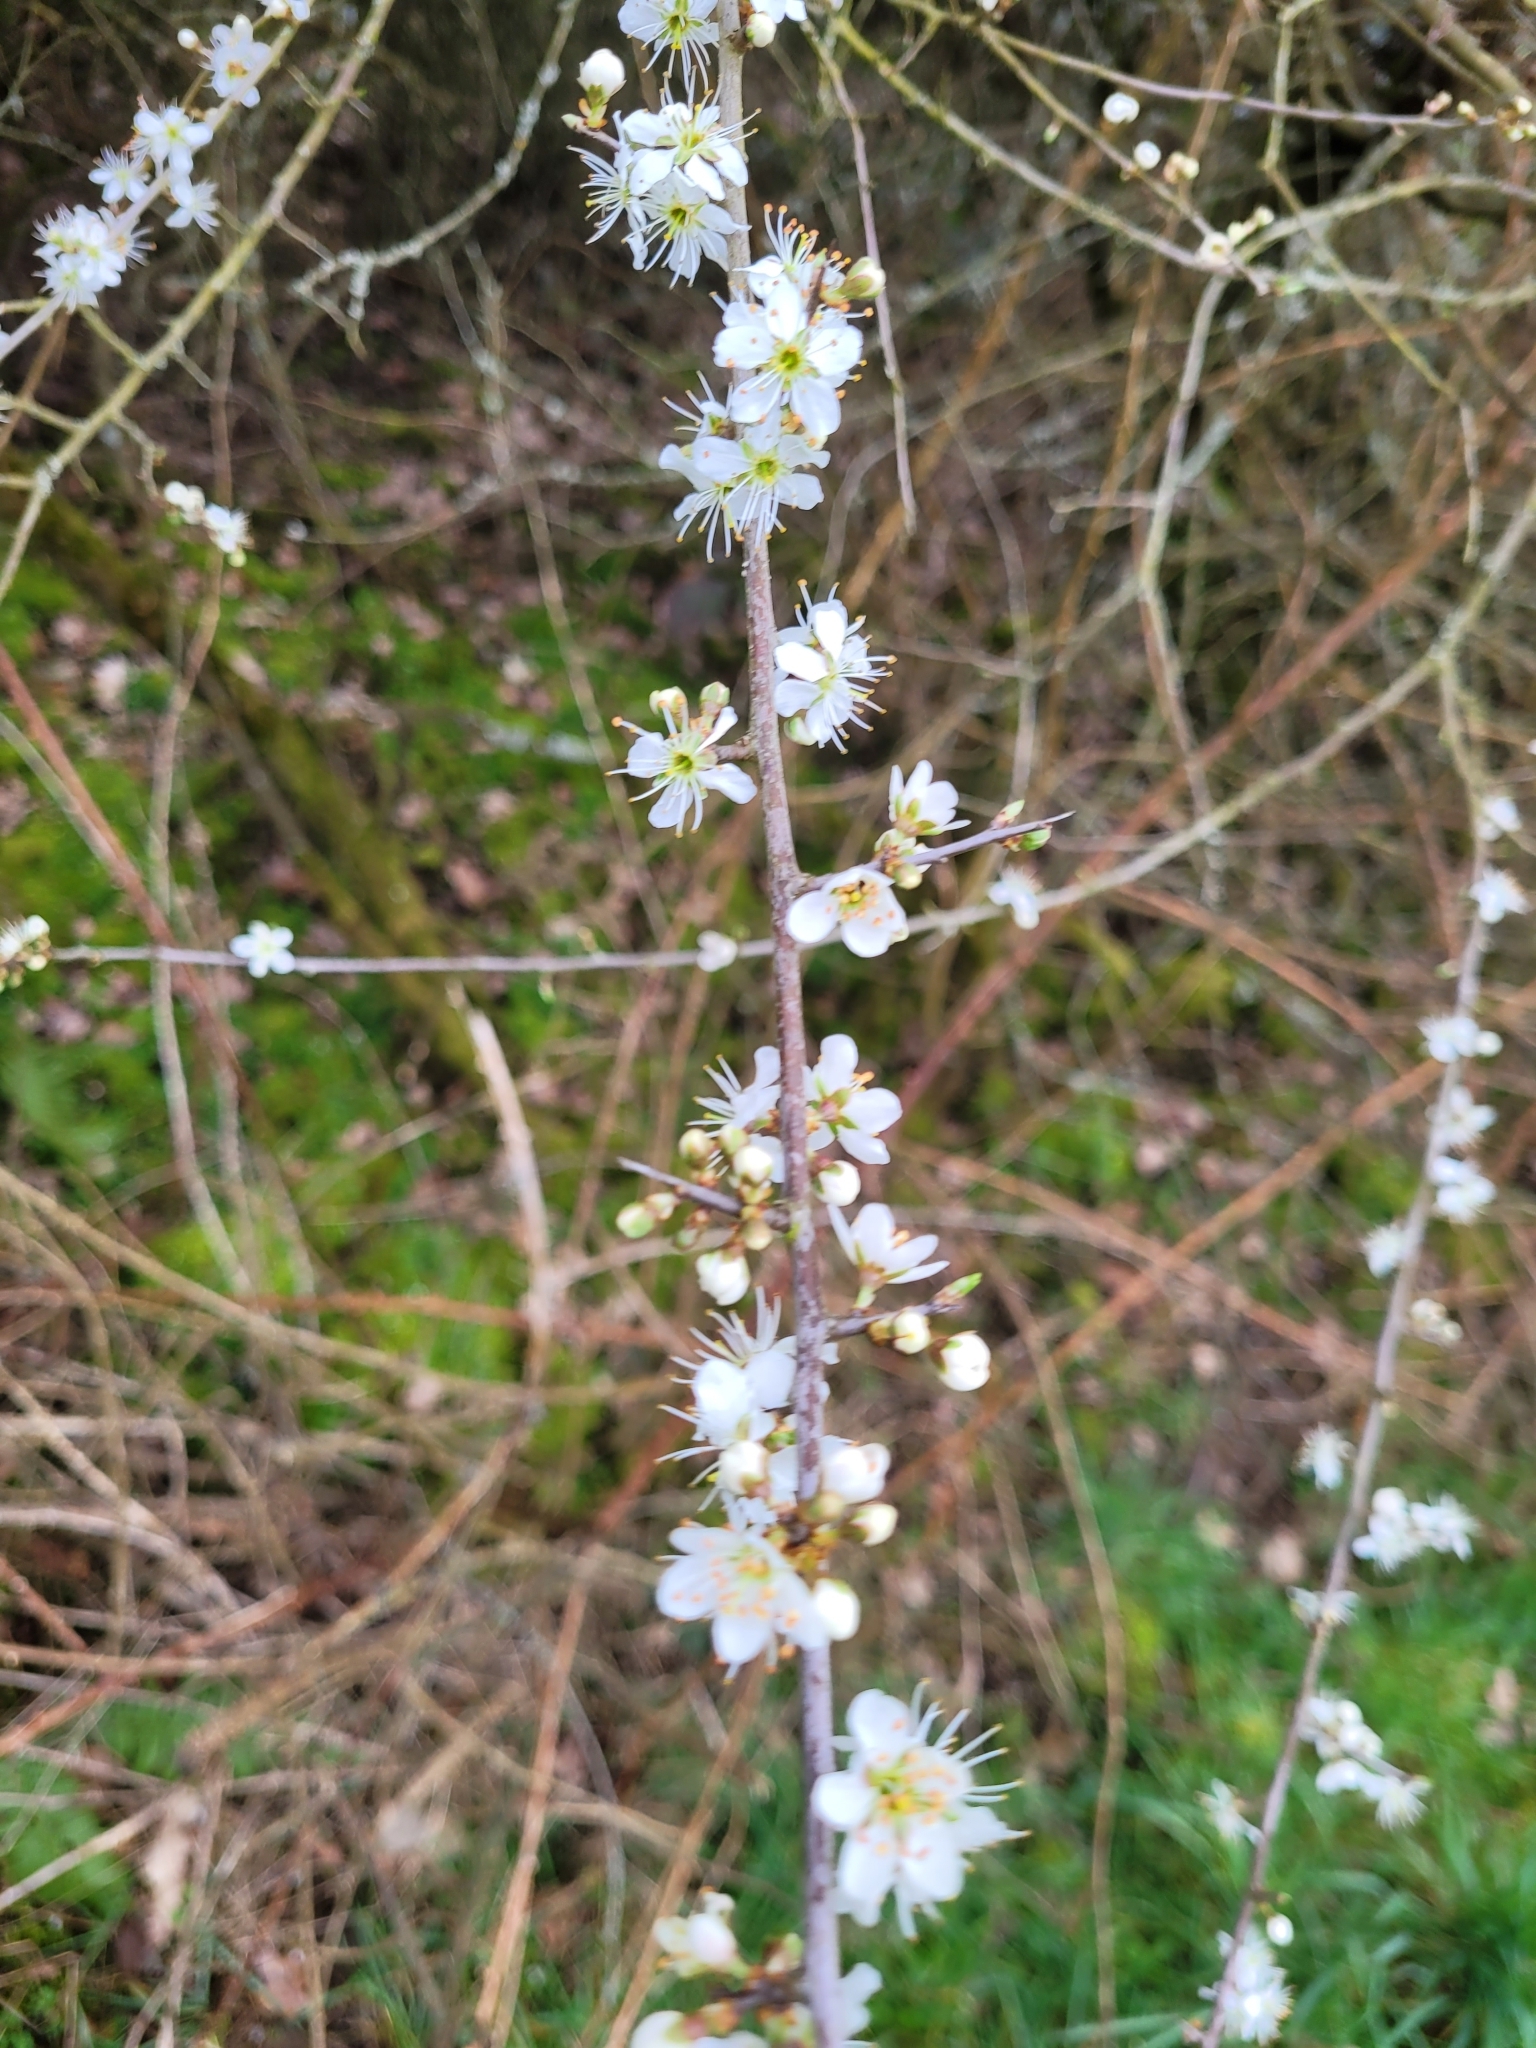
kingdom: Plantae
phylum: Tracheophyta
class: Magnoliopsida
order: Rosales
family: Rosaceae
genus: Prunus
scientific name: Prunus spinosa
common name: Blackthorn
